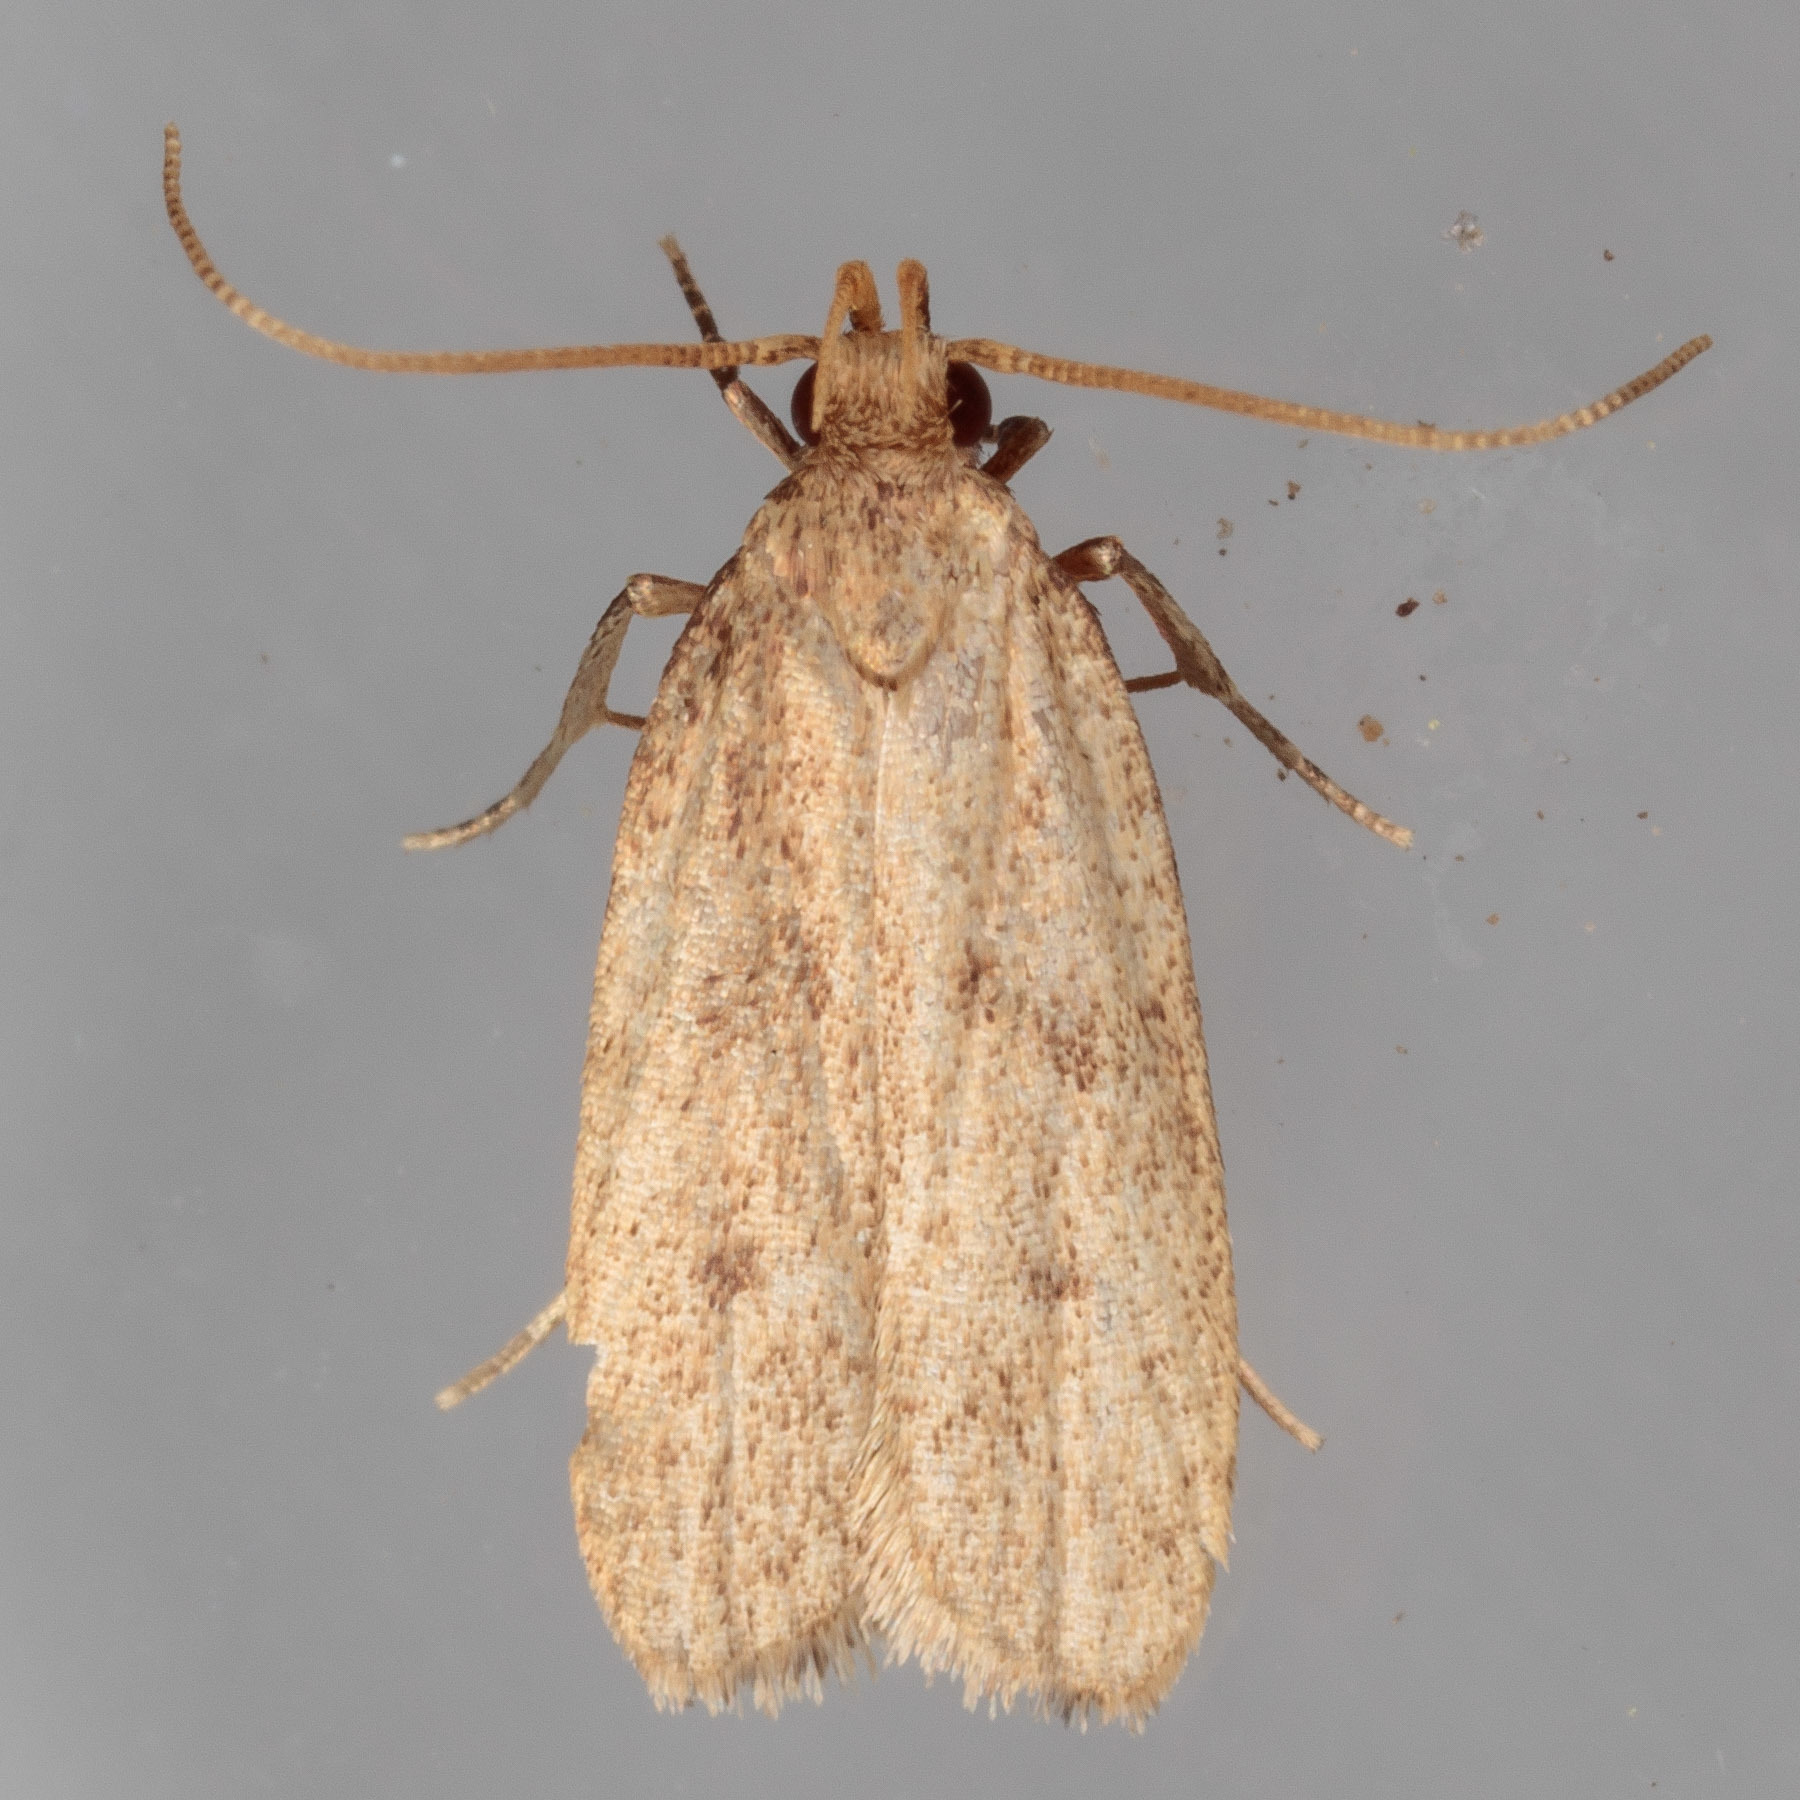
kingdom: Animalia
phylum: Arthropoda
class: Insecta
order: Lepidoptera
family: Autostichidae
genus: Glyphidocera
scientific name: Glyphidocera juniperella
